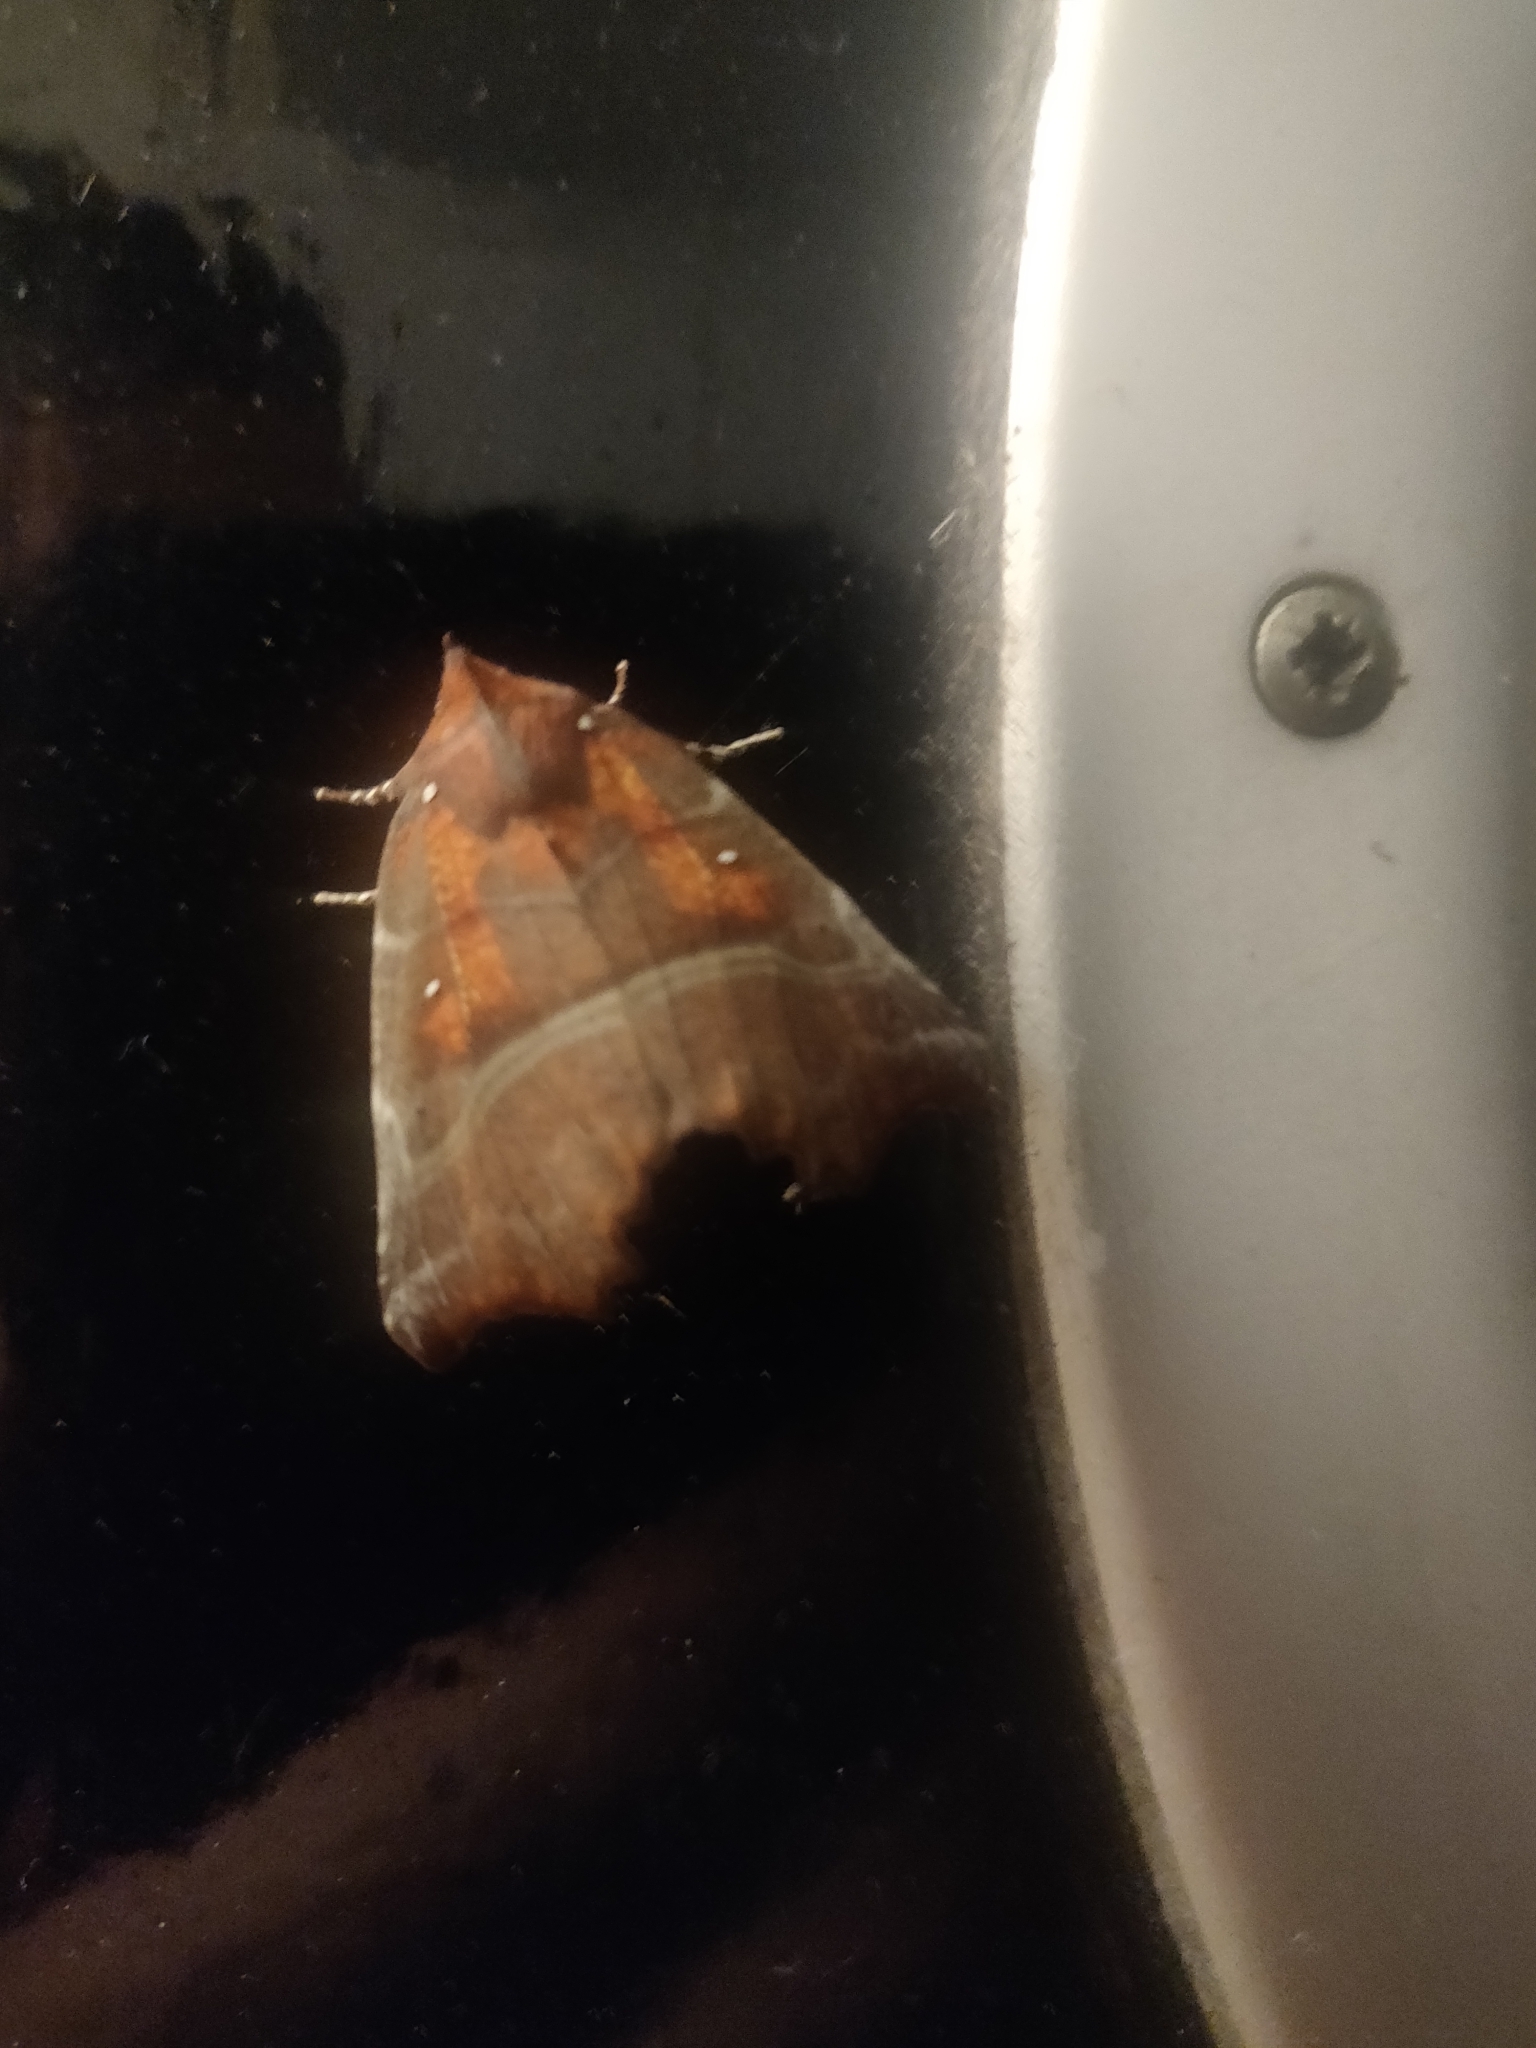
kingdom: Animalia
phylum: Arthropoda
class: Insecta
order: Lepidoptera
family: Erebidae
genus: Scoliopteryx
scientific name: Scoliopteryx libatrix
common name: Herald
